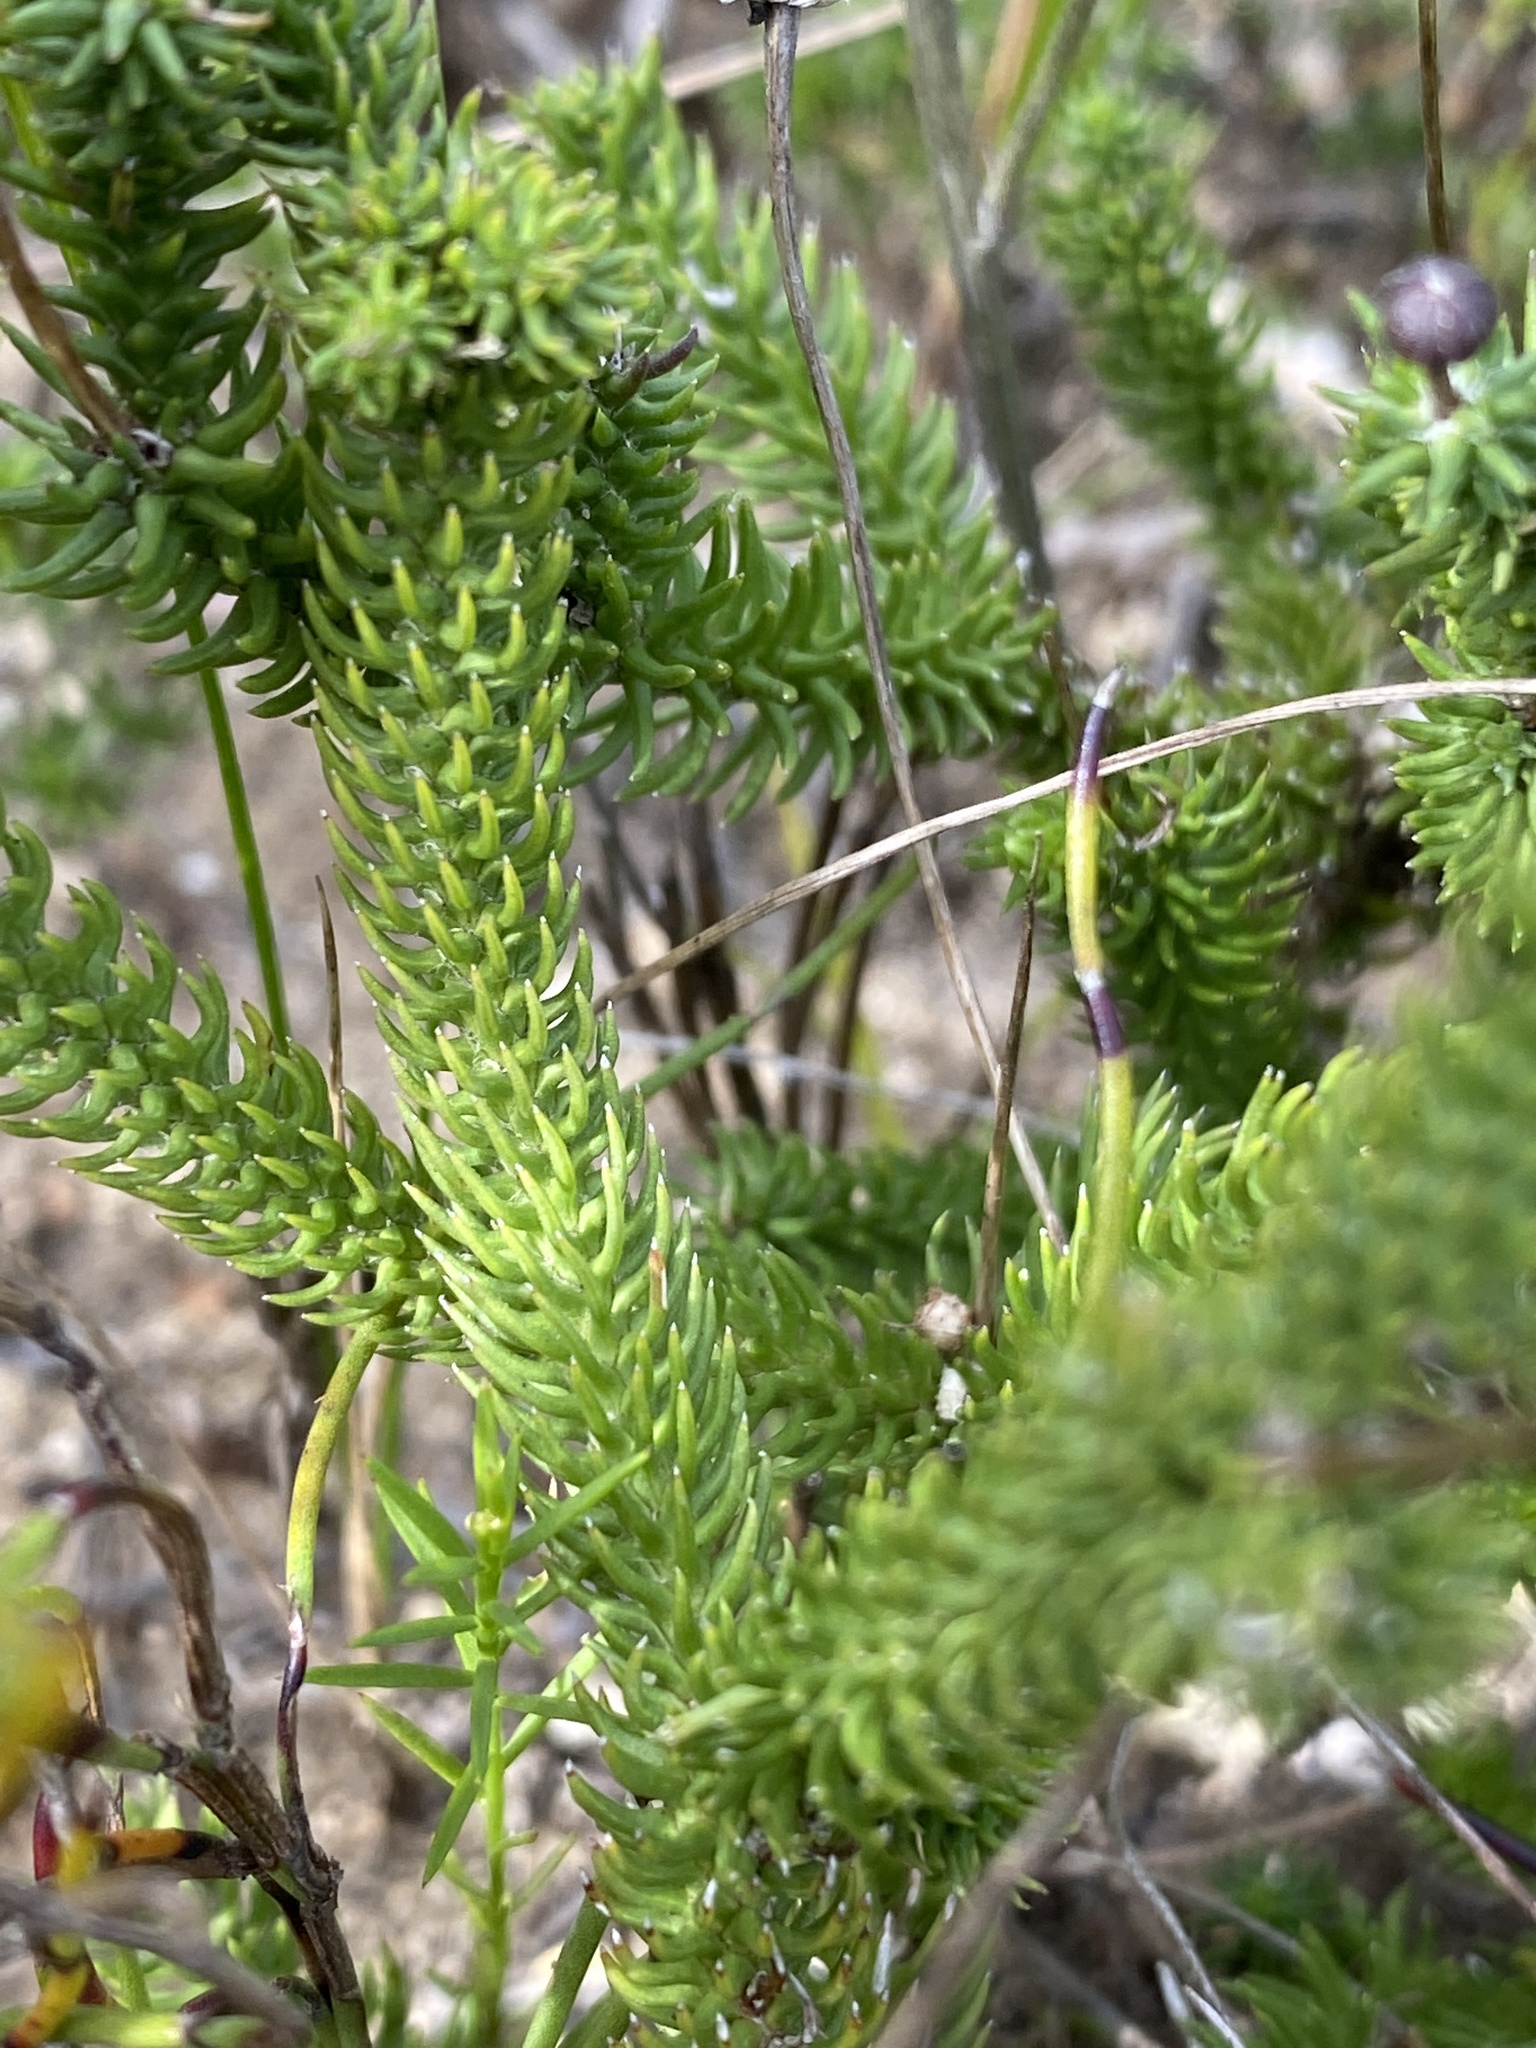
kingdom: Plantae
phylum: Tracheophyta
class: Magnoliopsida
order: Asterales
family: Asteraceae
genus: Euryops
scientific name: Euryops ericoides
